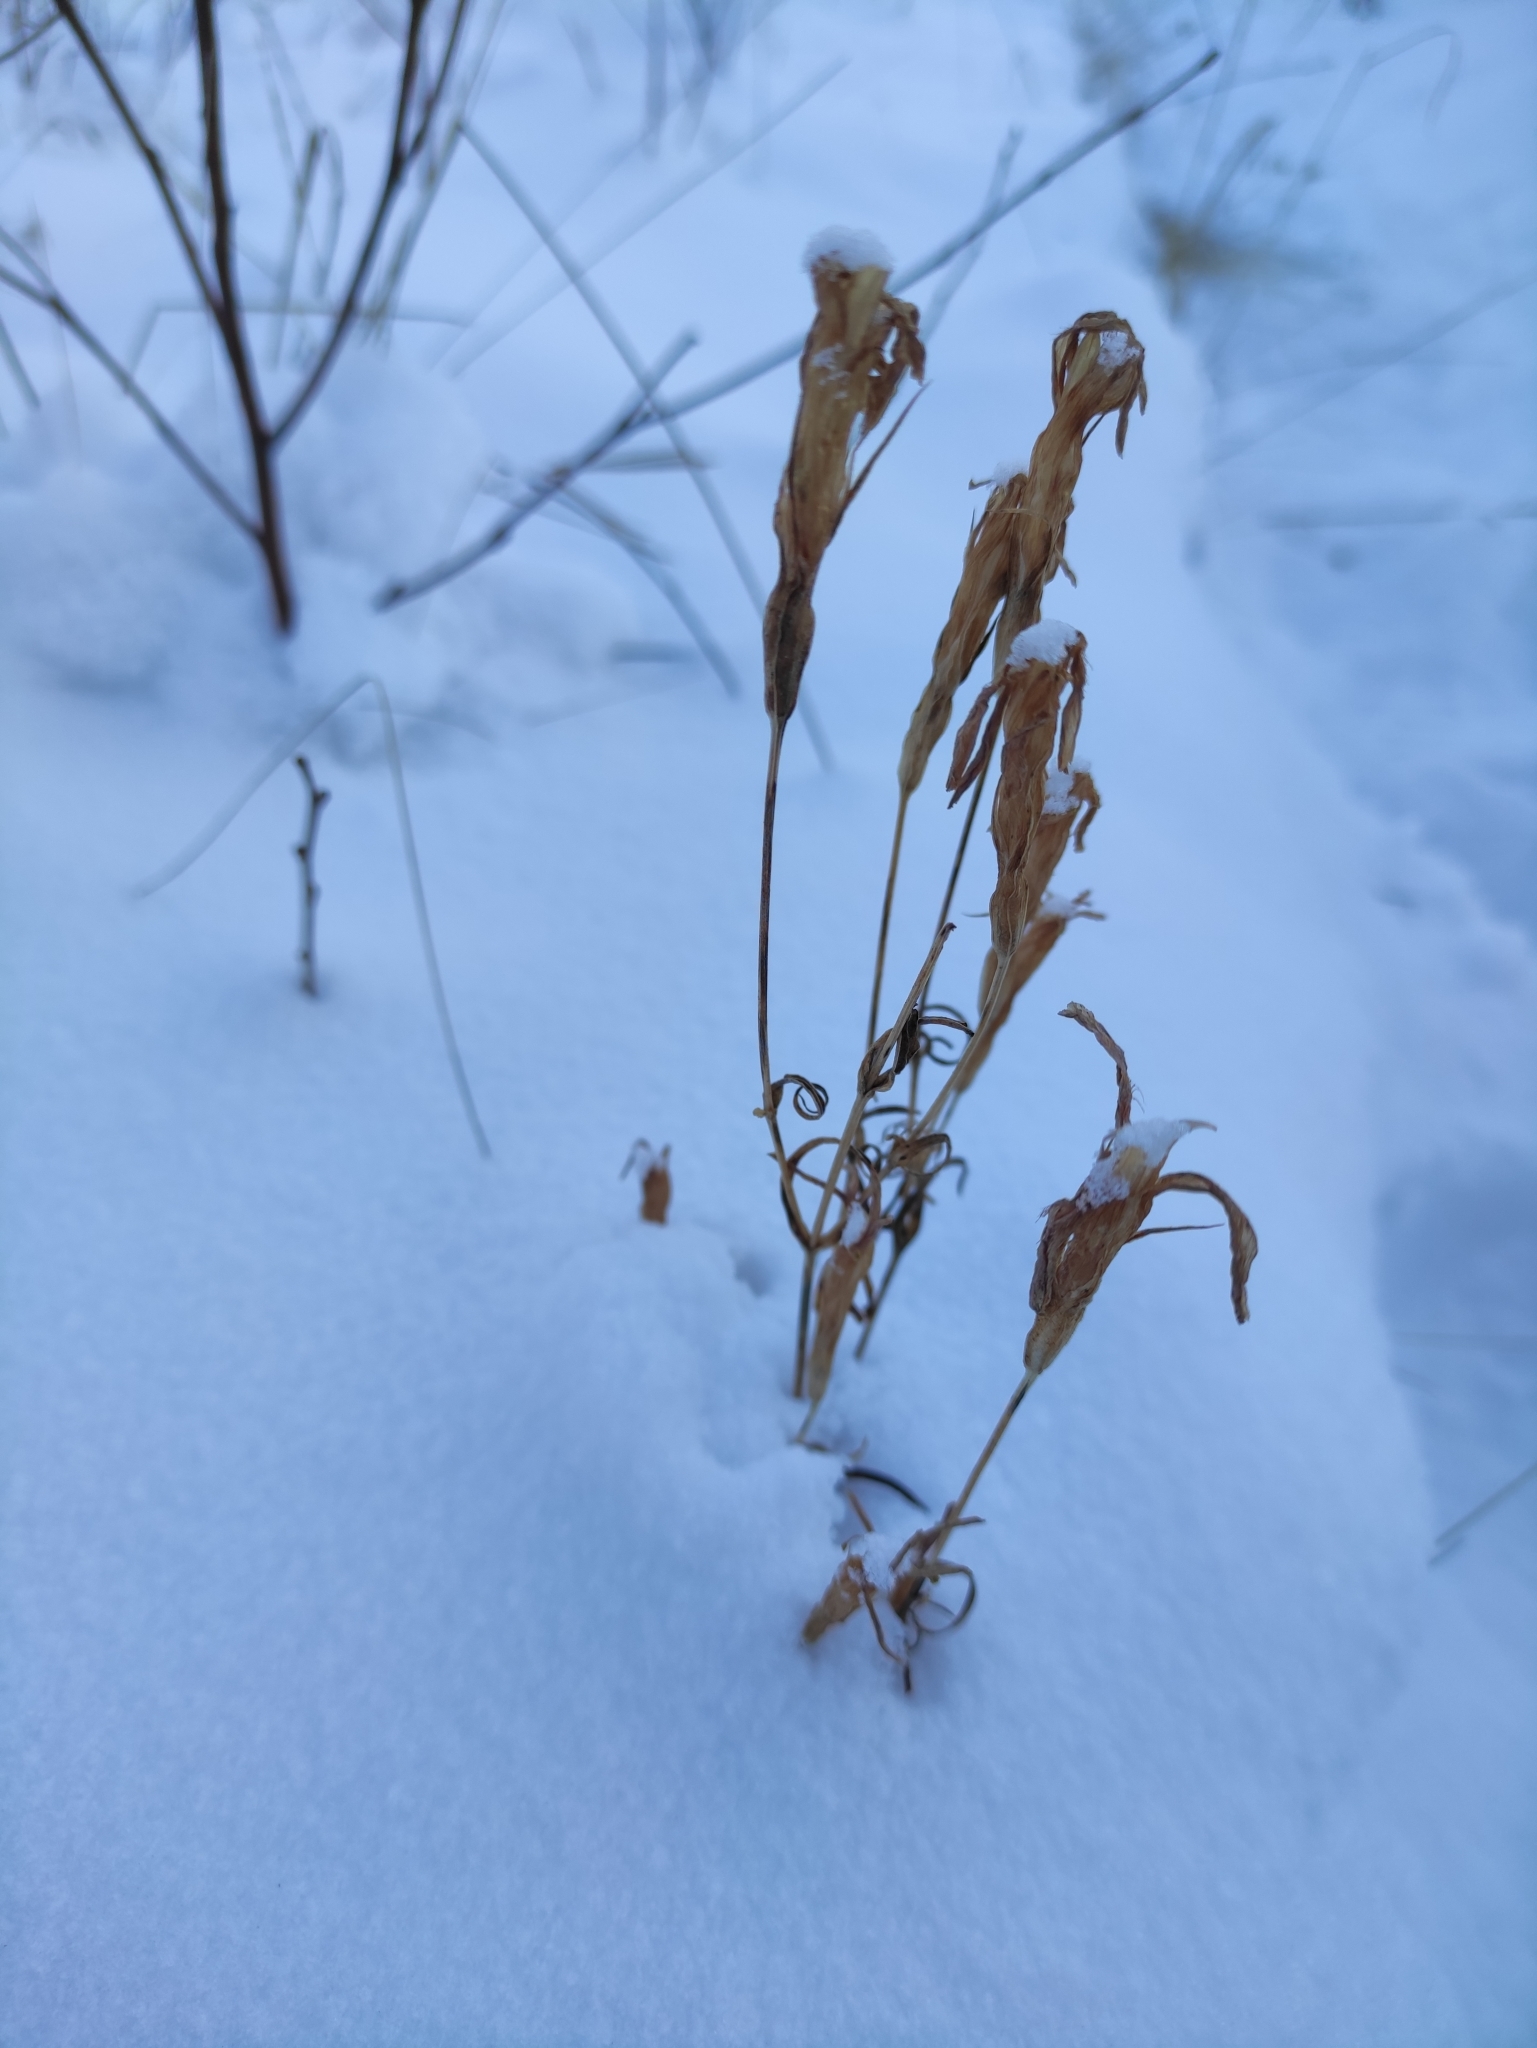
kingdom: Plantae
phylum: Tracheophyta
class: Magnoliopsida
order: Gentianales
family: Gentianaceae
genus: Gentianopsis
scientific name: Gentianopsis barbata
